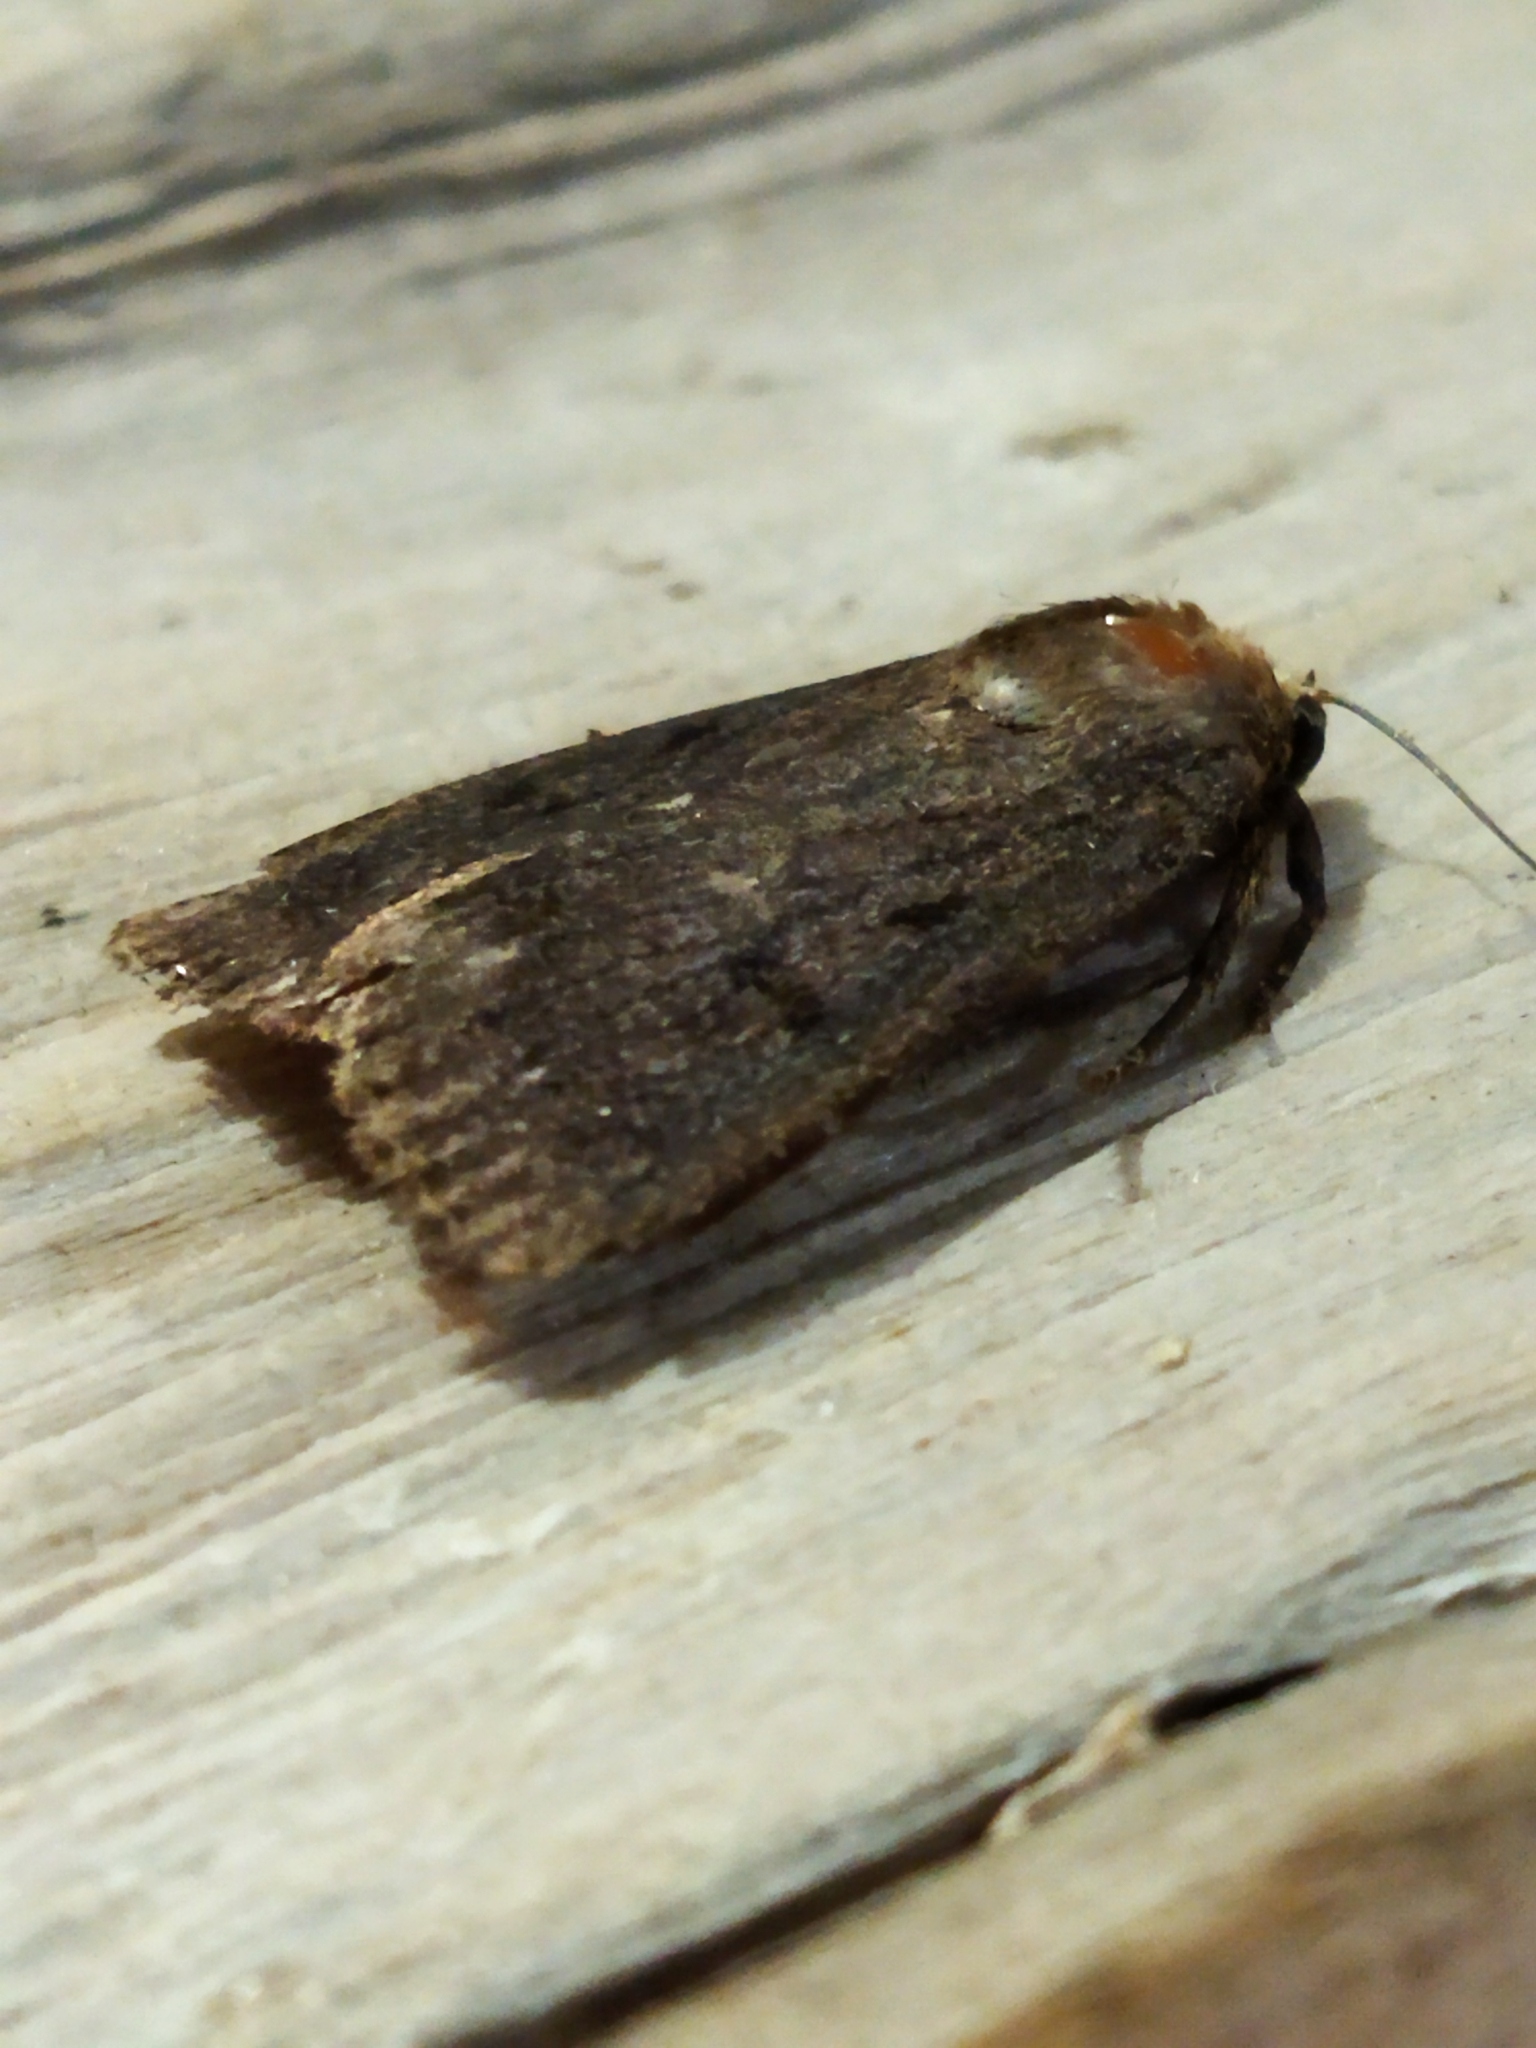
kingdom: Animalia
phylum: Arthropoda
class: Insecta
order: Lepidoptera
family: Noctuidae
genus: Amphipyra
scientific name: Amphipyra tragopoginis
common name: Mouse moth
